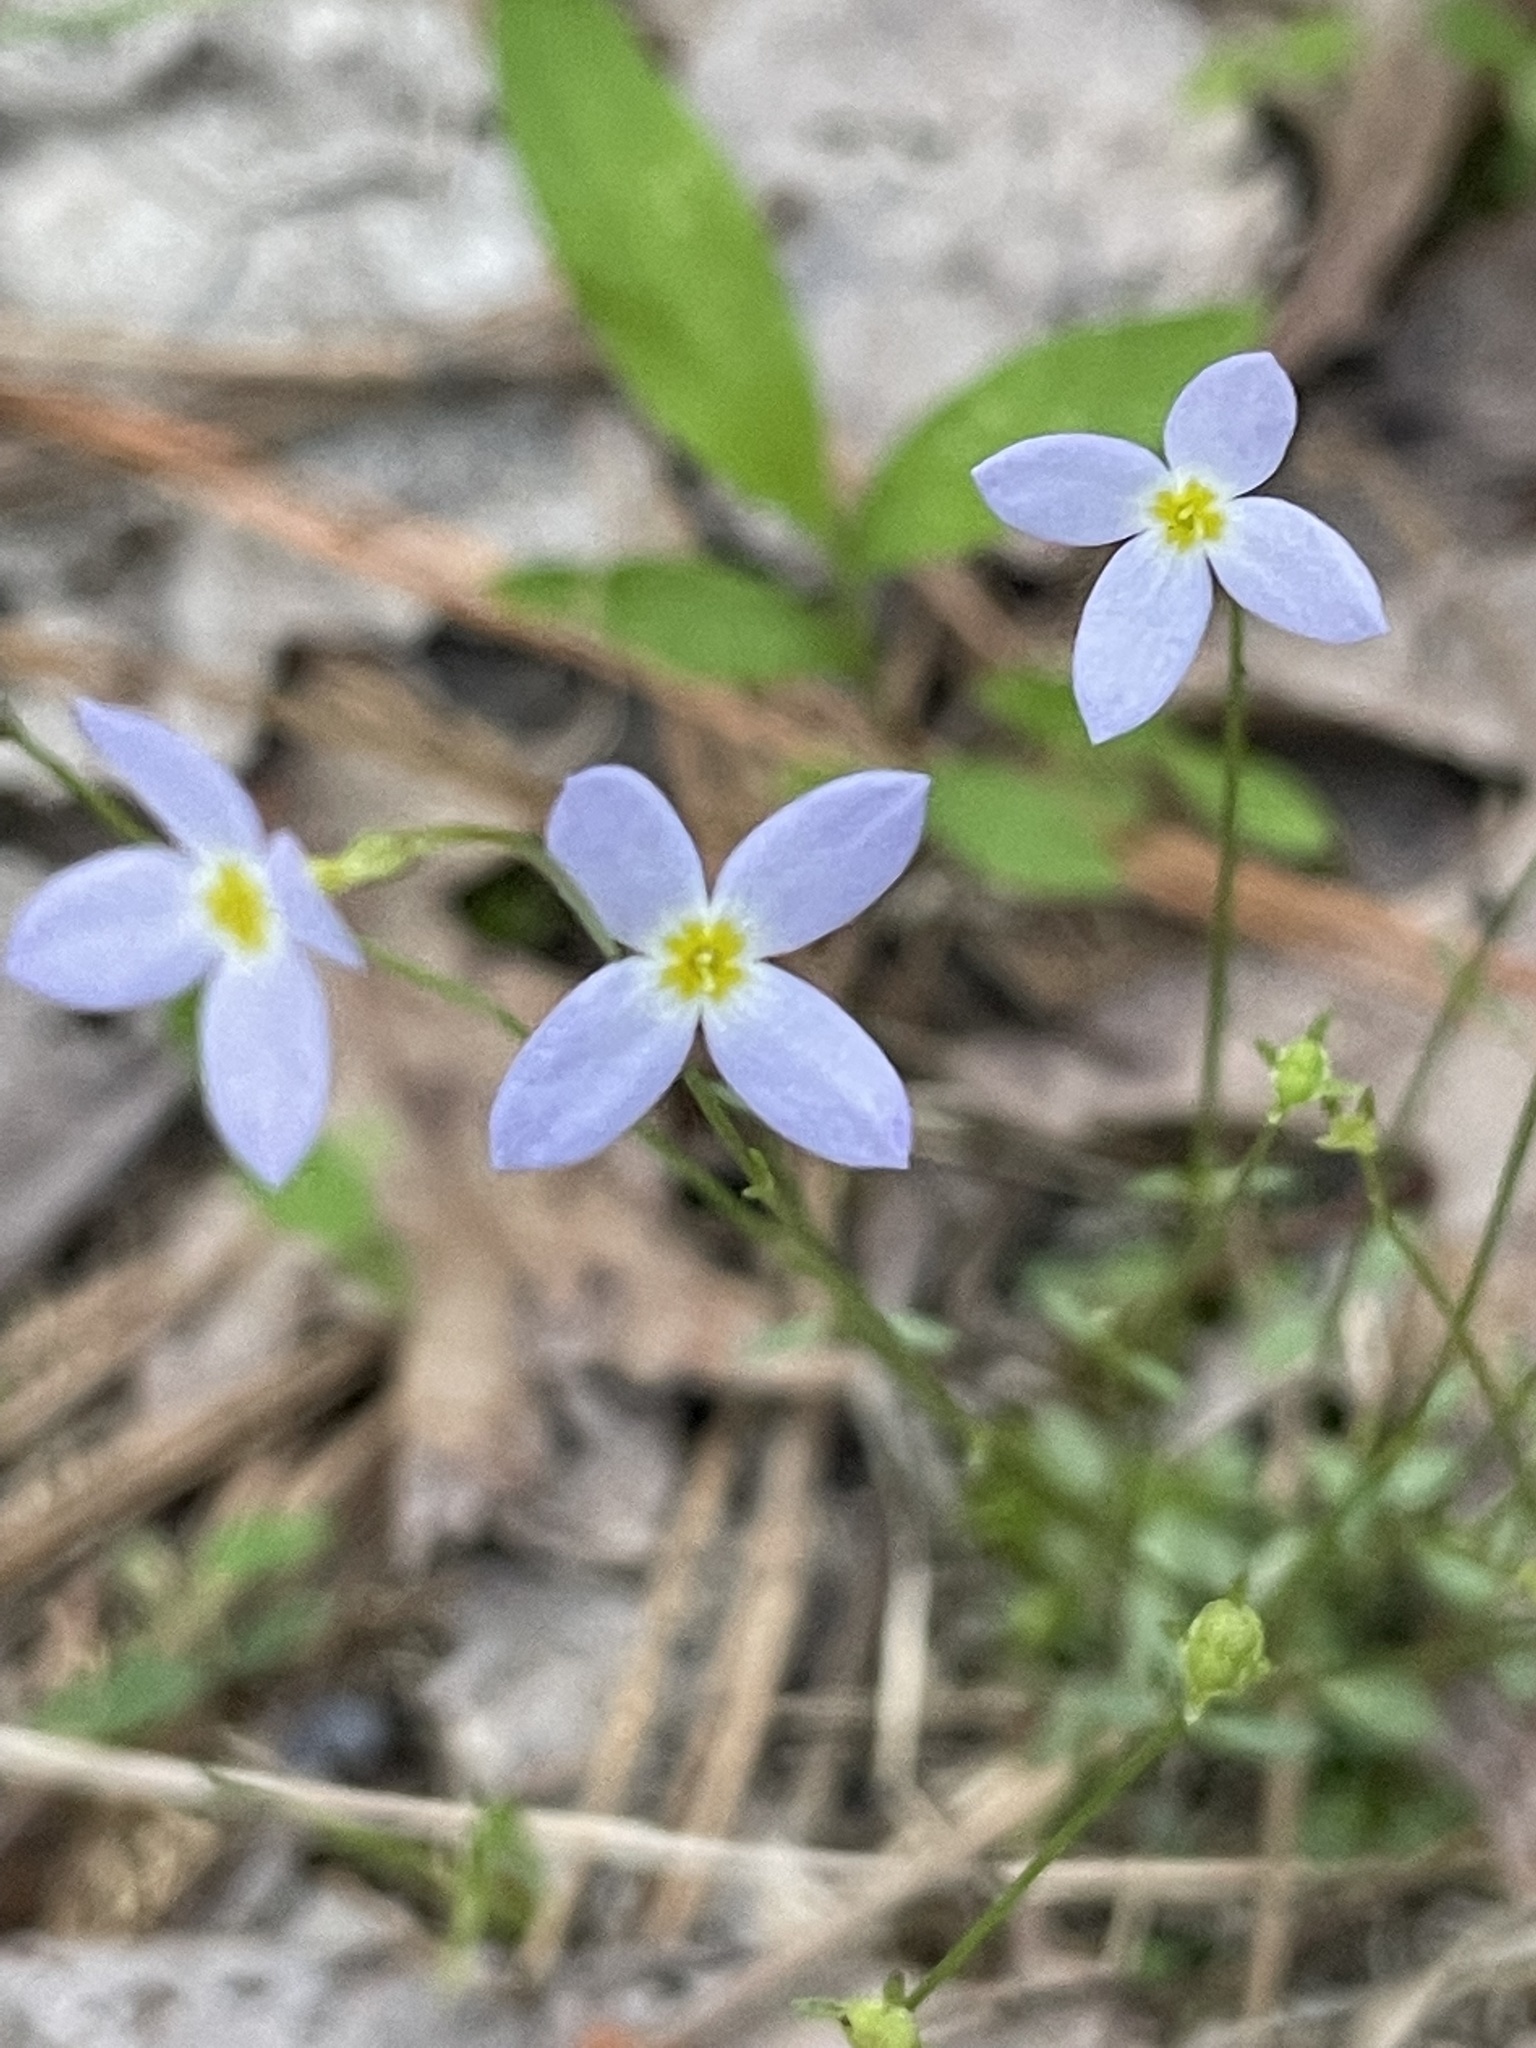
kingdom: Plantae
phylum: Tracheophyta
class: Magnoliopsida
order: Gentianales
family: Rubiaceae
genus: Houstonia
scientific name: Houstonia caerulea
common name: Bluets
